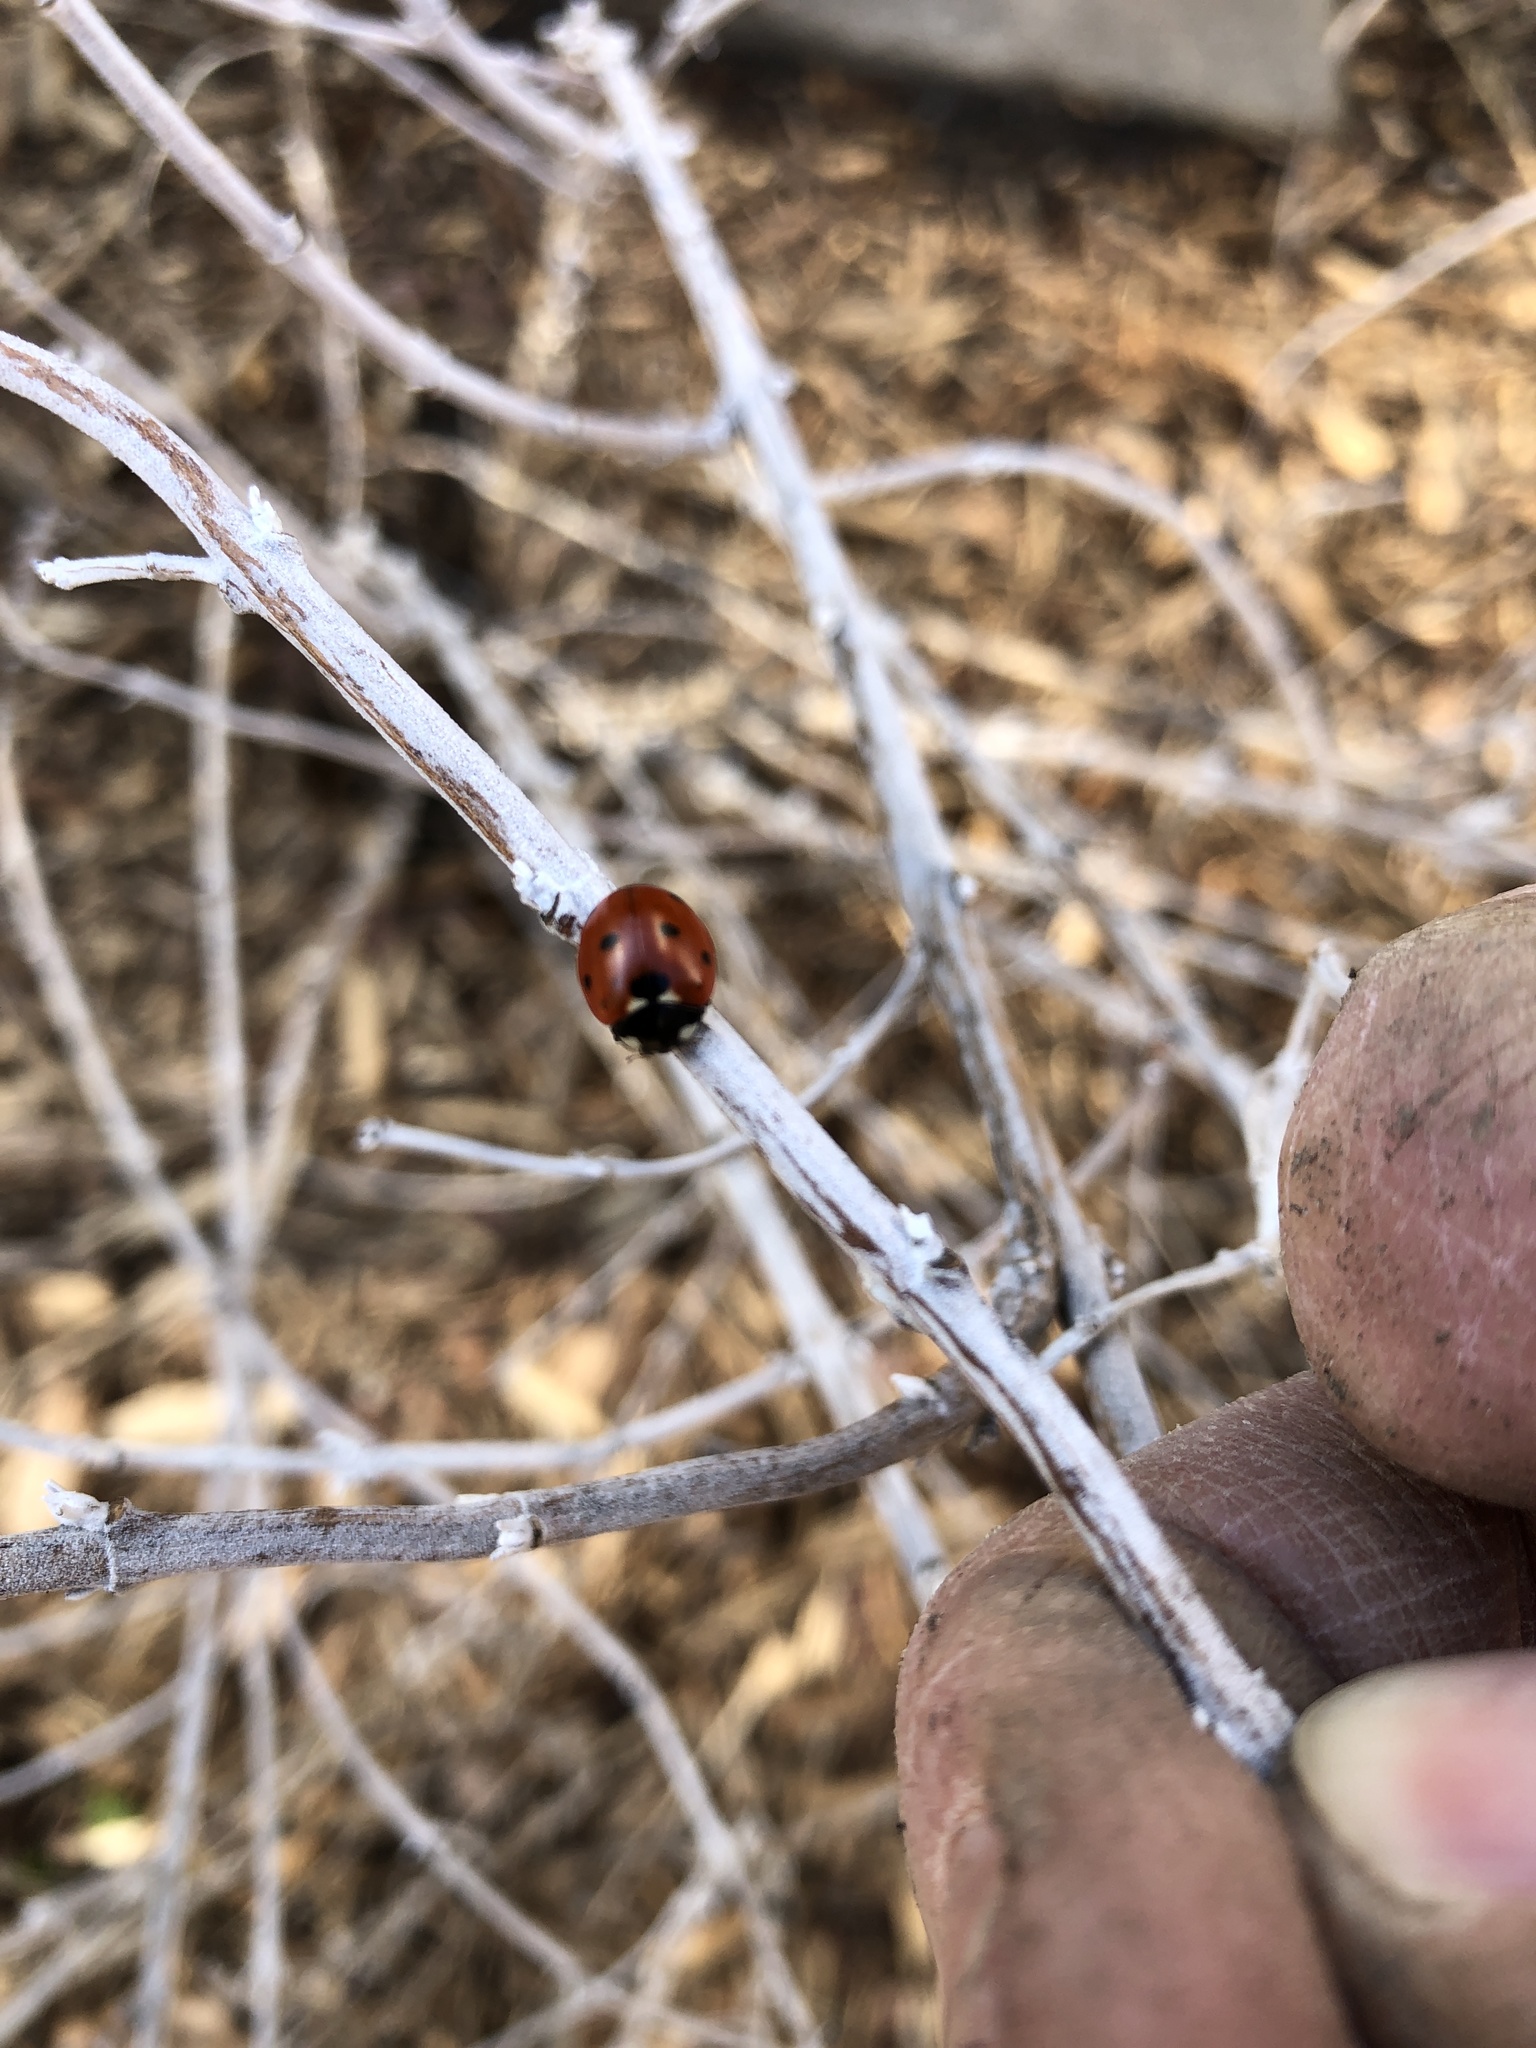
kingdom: Animalia
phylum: Arthropoda
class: Insecta
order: Coleoptera
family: Coccinellidae
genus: Coccinella
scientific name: Coccinella septempunctata
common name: Sevenspotted lady beetle
